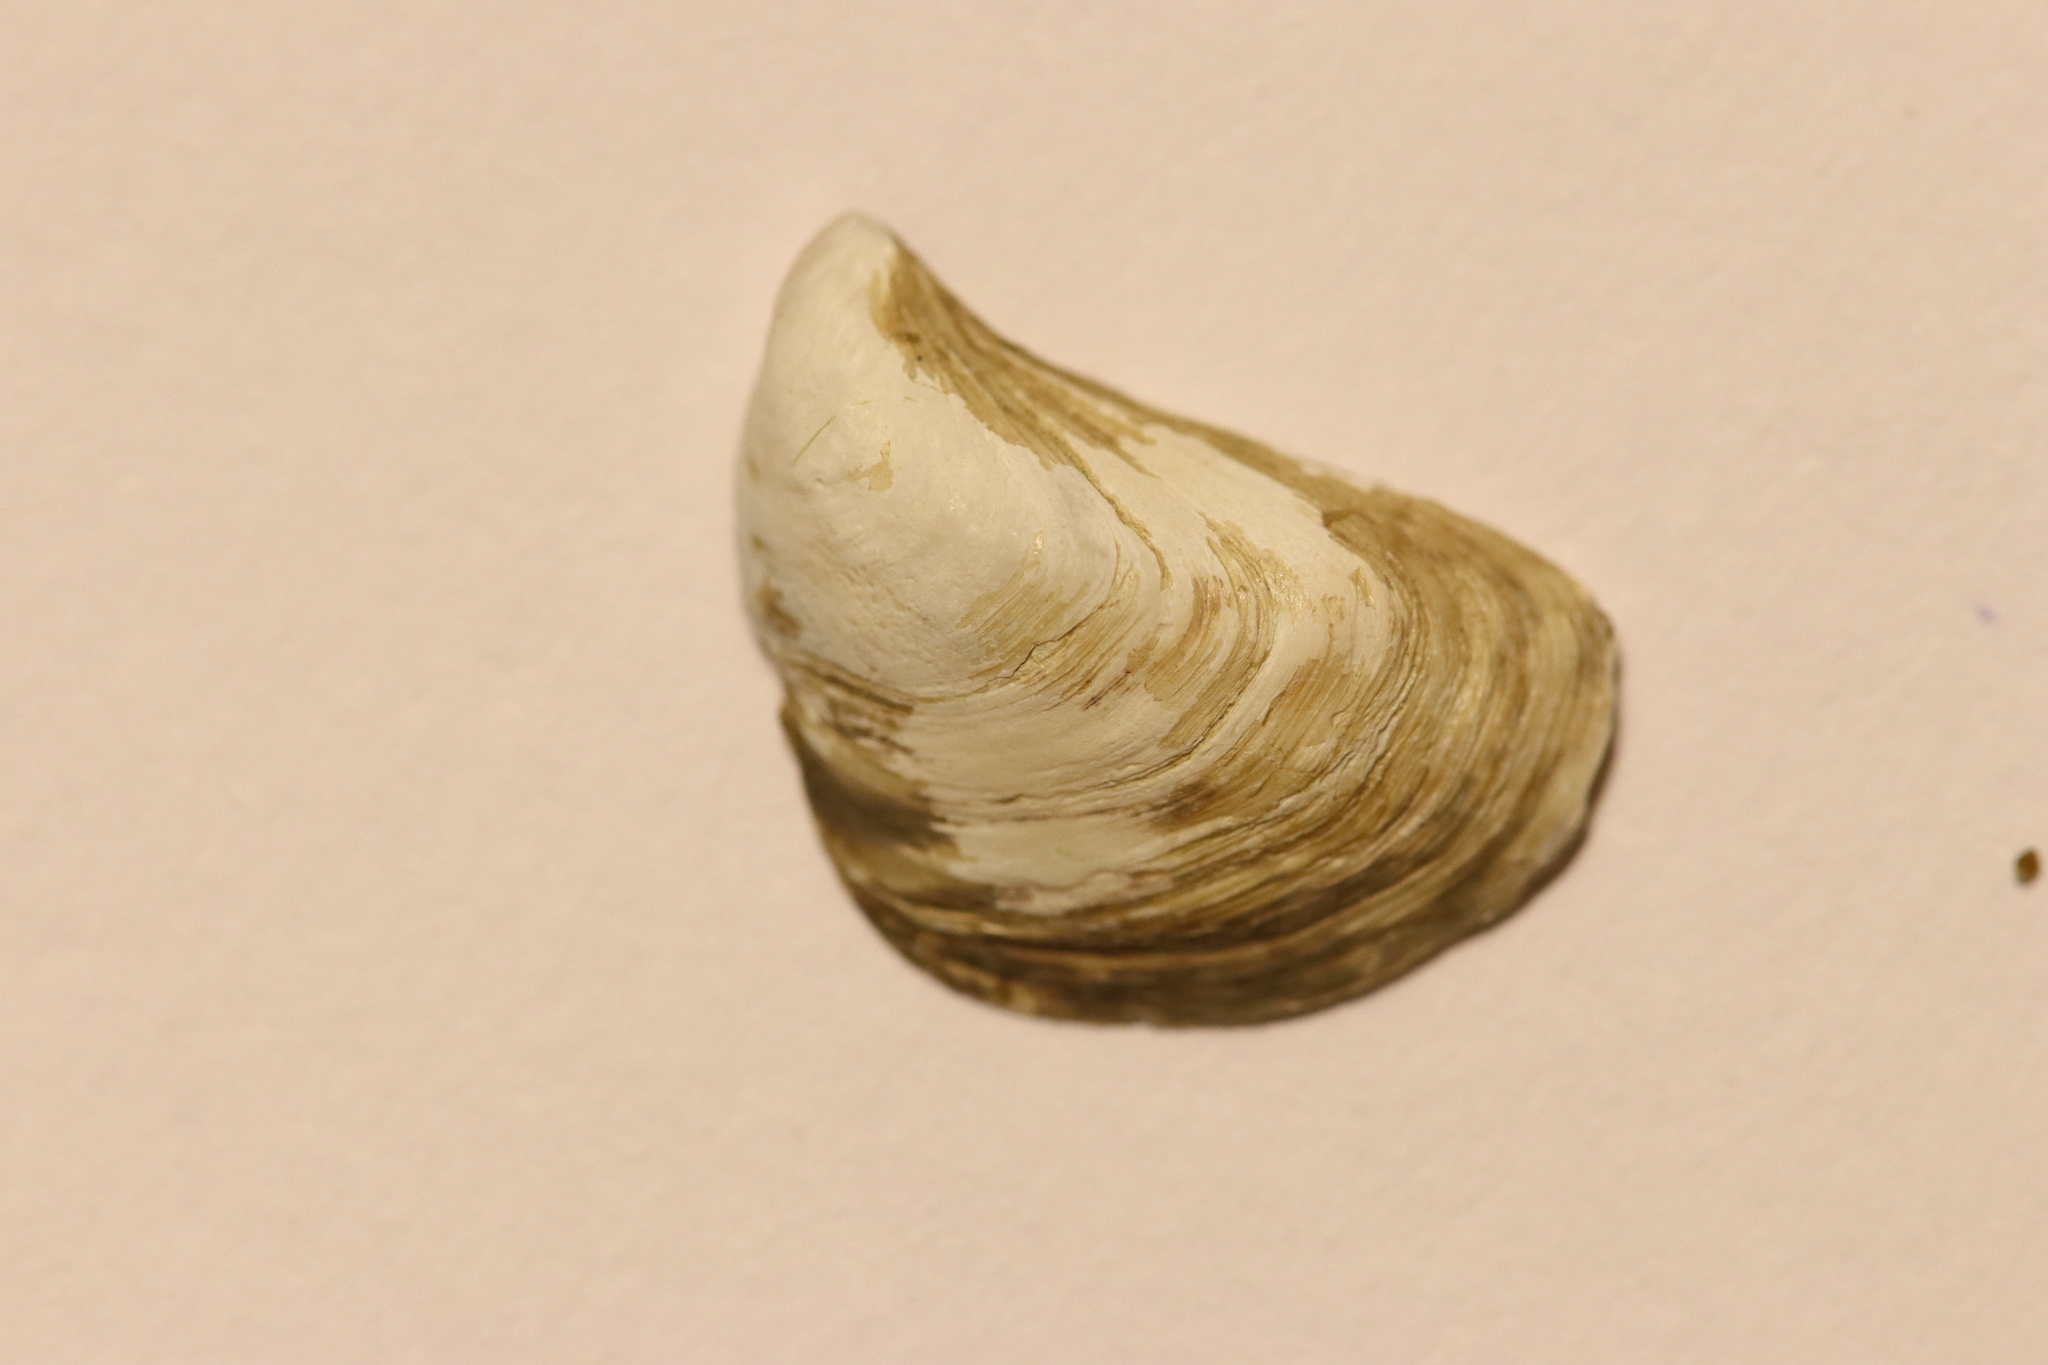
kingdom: Animalia
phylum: Mollusca
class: Bivalvia
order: Myida
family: Dreissenidae
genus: Dreissena
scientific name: Dreissena bugensis
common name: Quagga mussel
